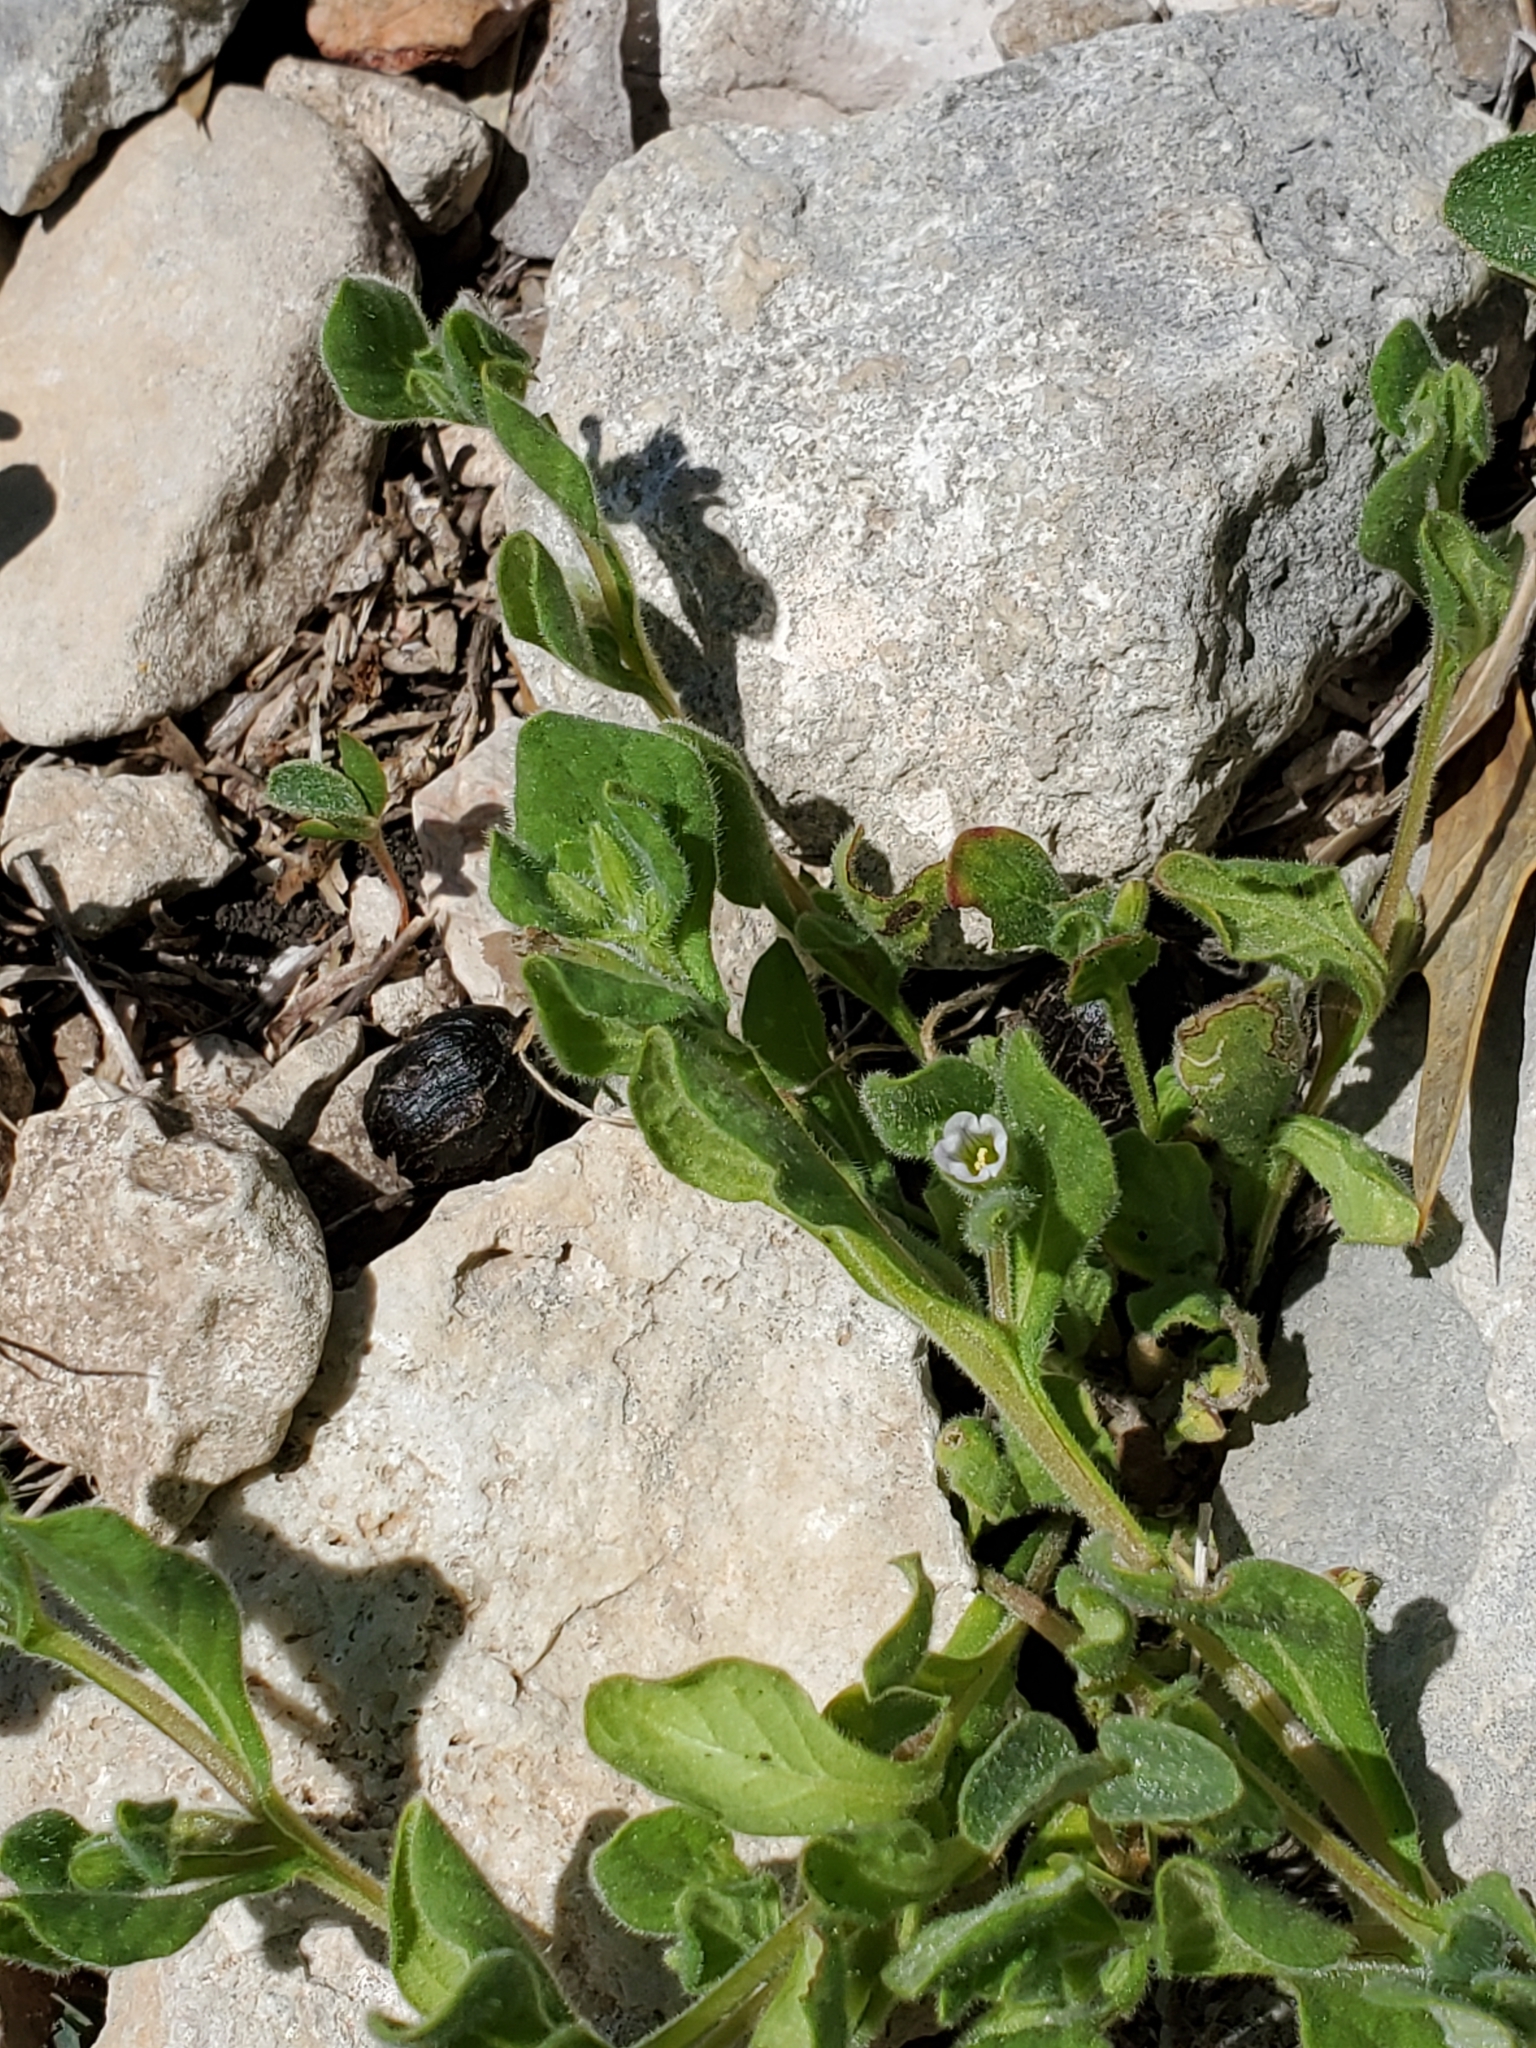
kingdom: Plantae
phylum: Tracheophyta
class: Magnoliopsida
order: Boraginales
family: Namaceae
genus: Nama
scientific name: Nama jamaicensis
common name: Jamaicanweed
